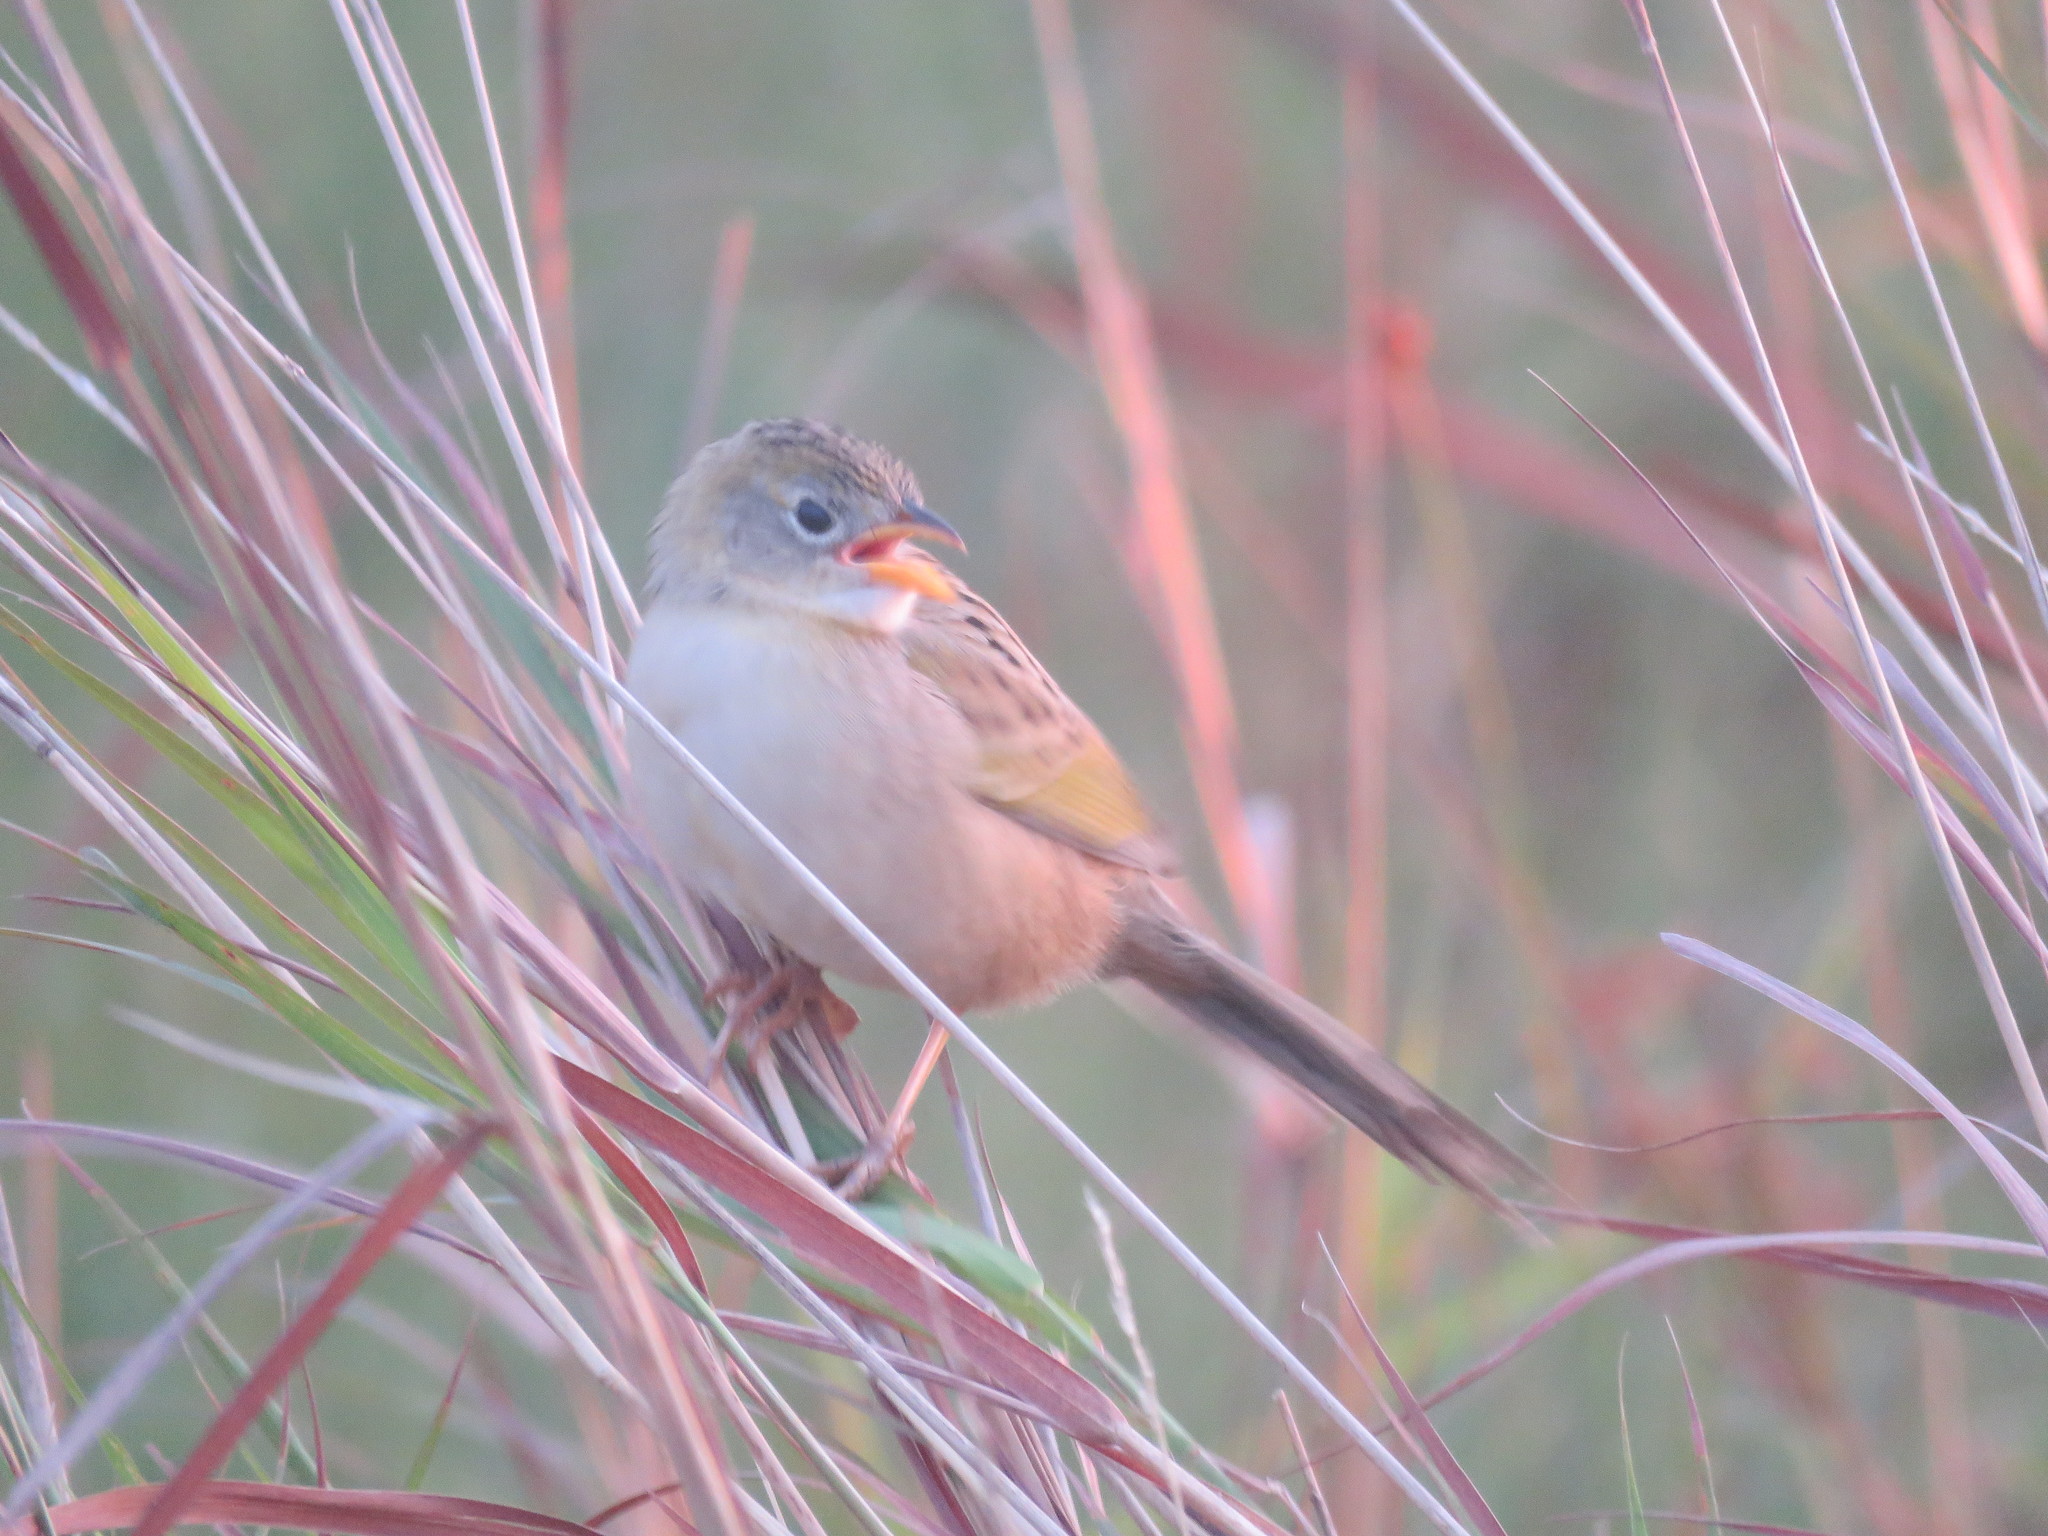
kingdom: Animalia
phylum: Chordata
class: Aves
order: Passeriformes
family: Thraupidae
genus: Emberizoides
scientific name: Emberizoides ypiranganus
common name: Lesser grass finch
